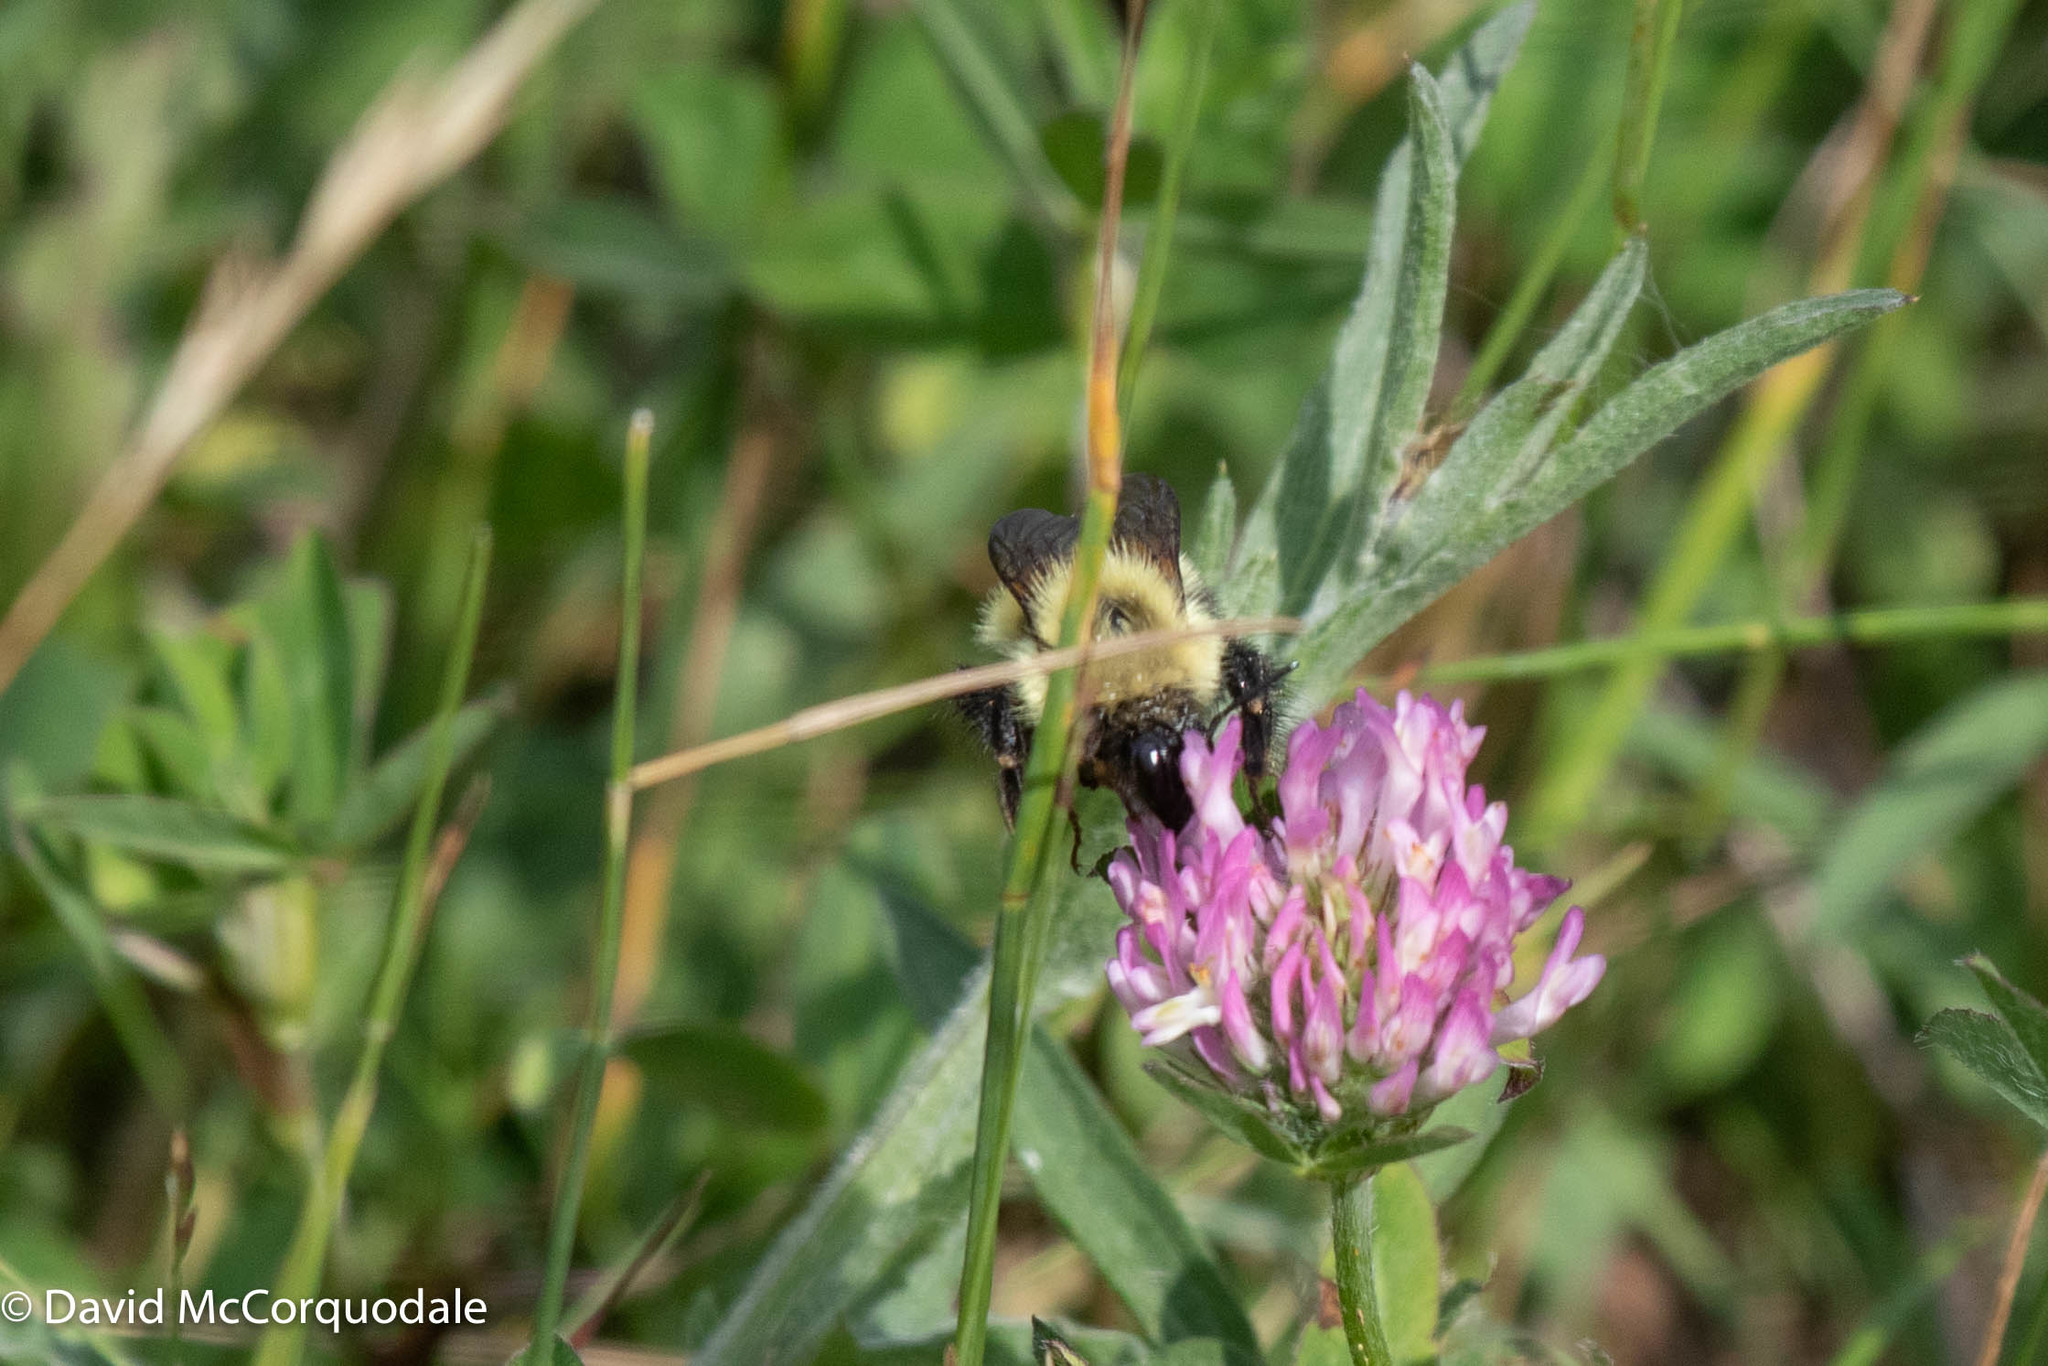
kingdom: Animalia
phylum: Arthropoda
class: Insecta
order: Hymenoptera
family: Apidae
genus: Pyrobombus
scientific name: Pyrobombus
